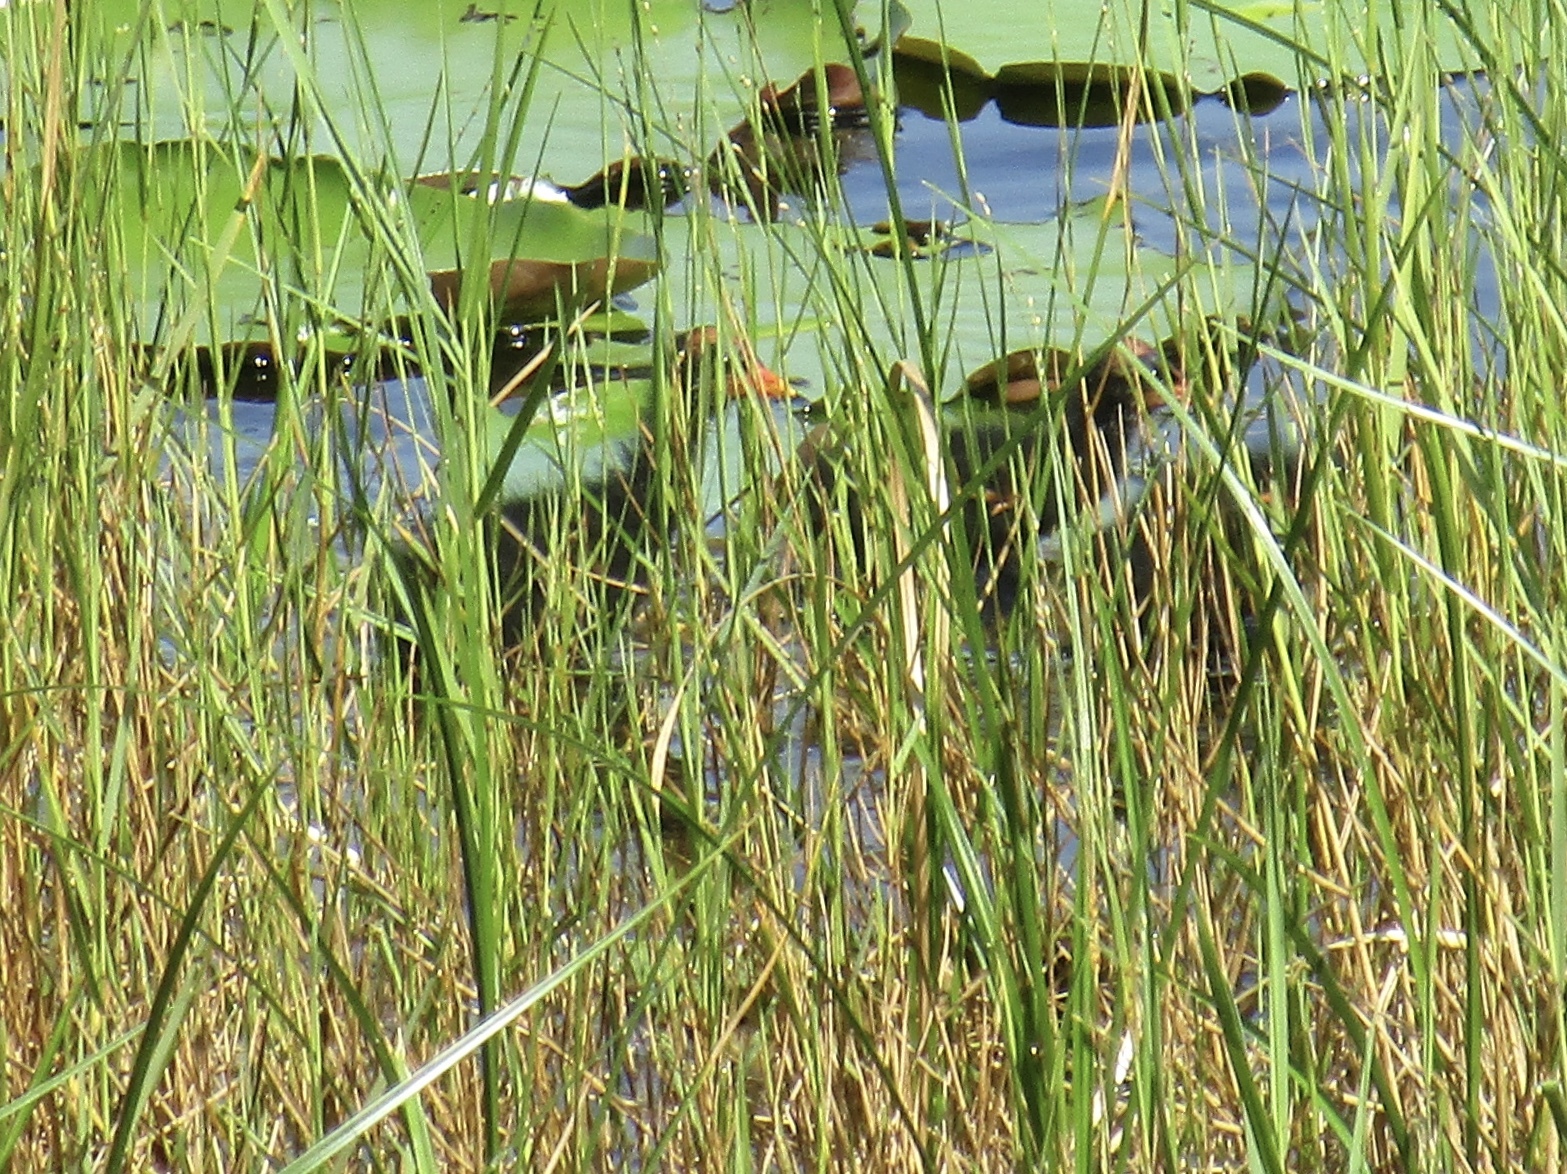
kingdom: Animalia
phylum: Chordata
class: Aves
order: Gruiformes
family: Rallidae
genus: Gallinula
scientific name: Gallinula chloropus
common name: Common moorhen
